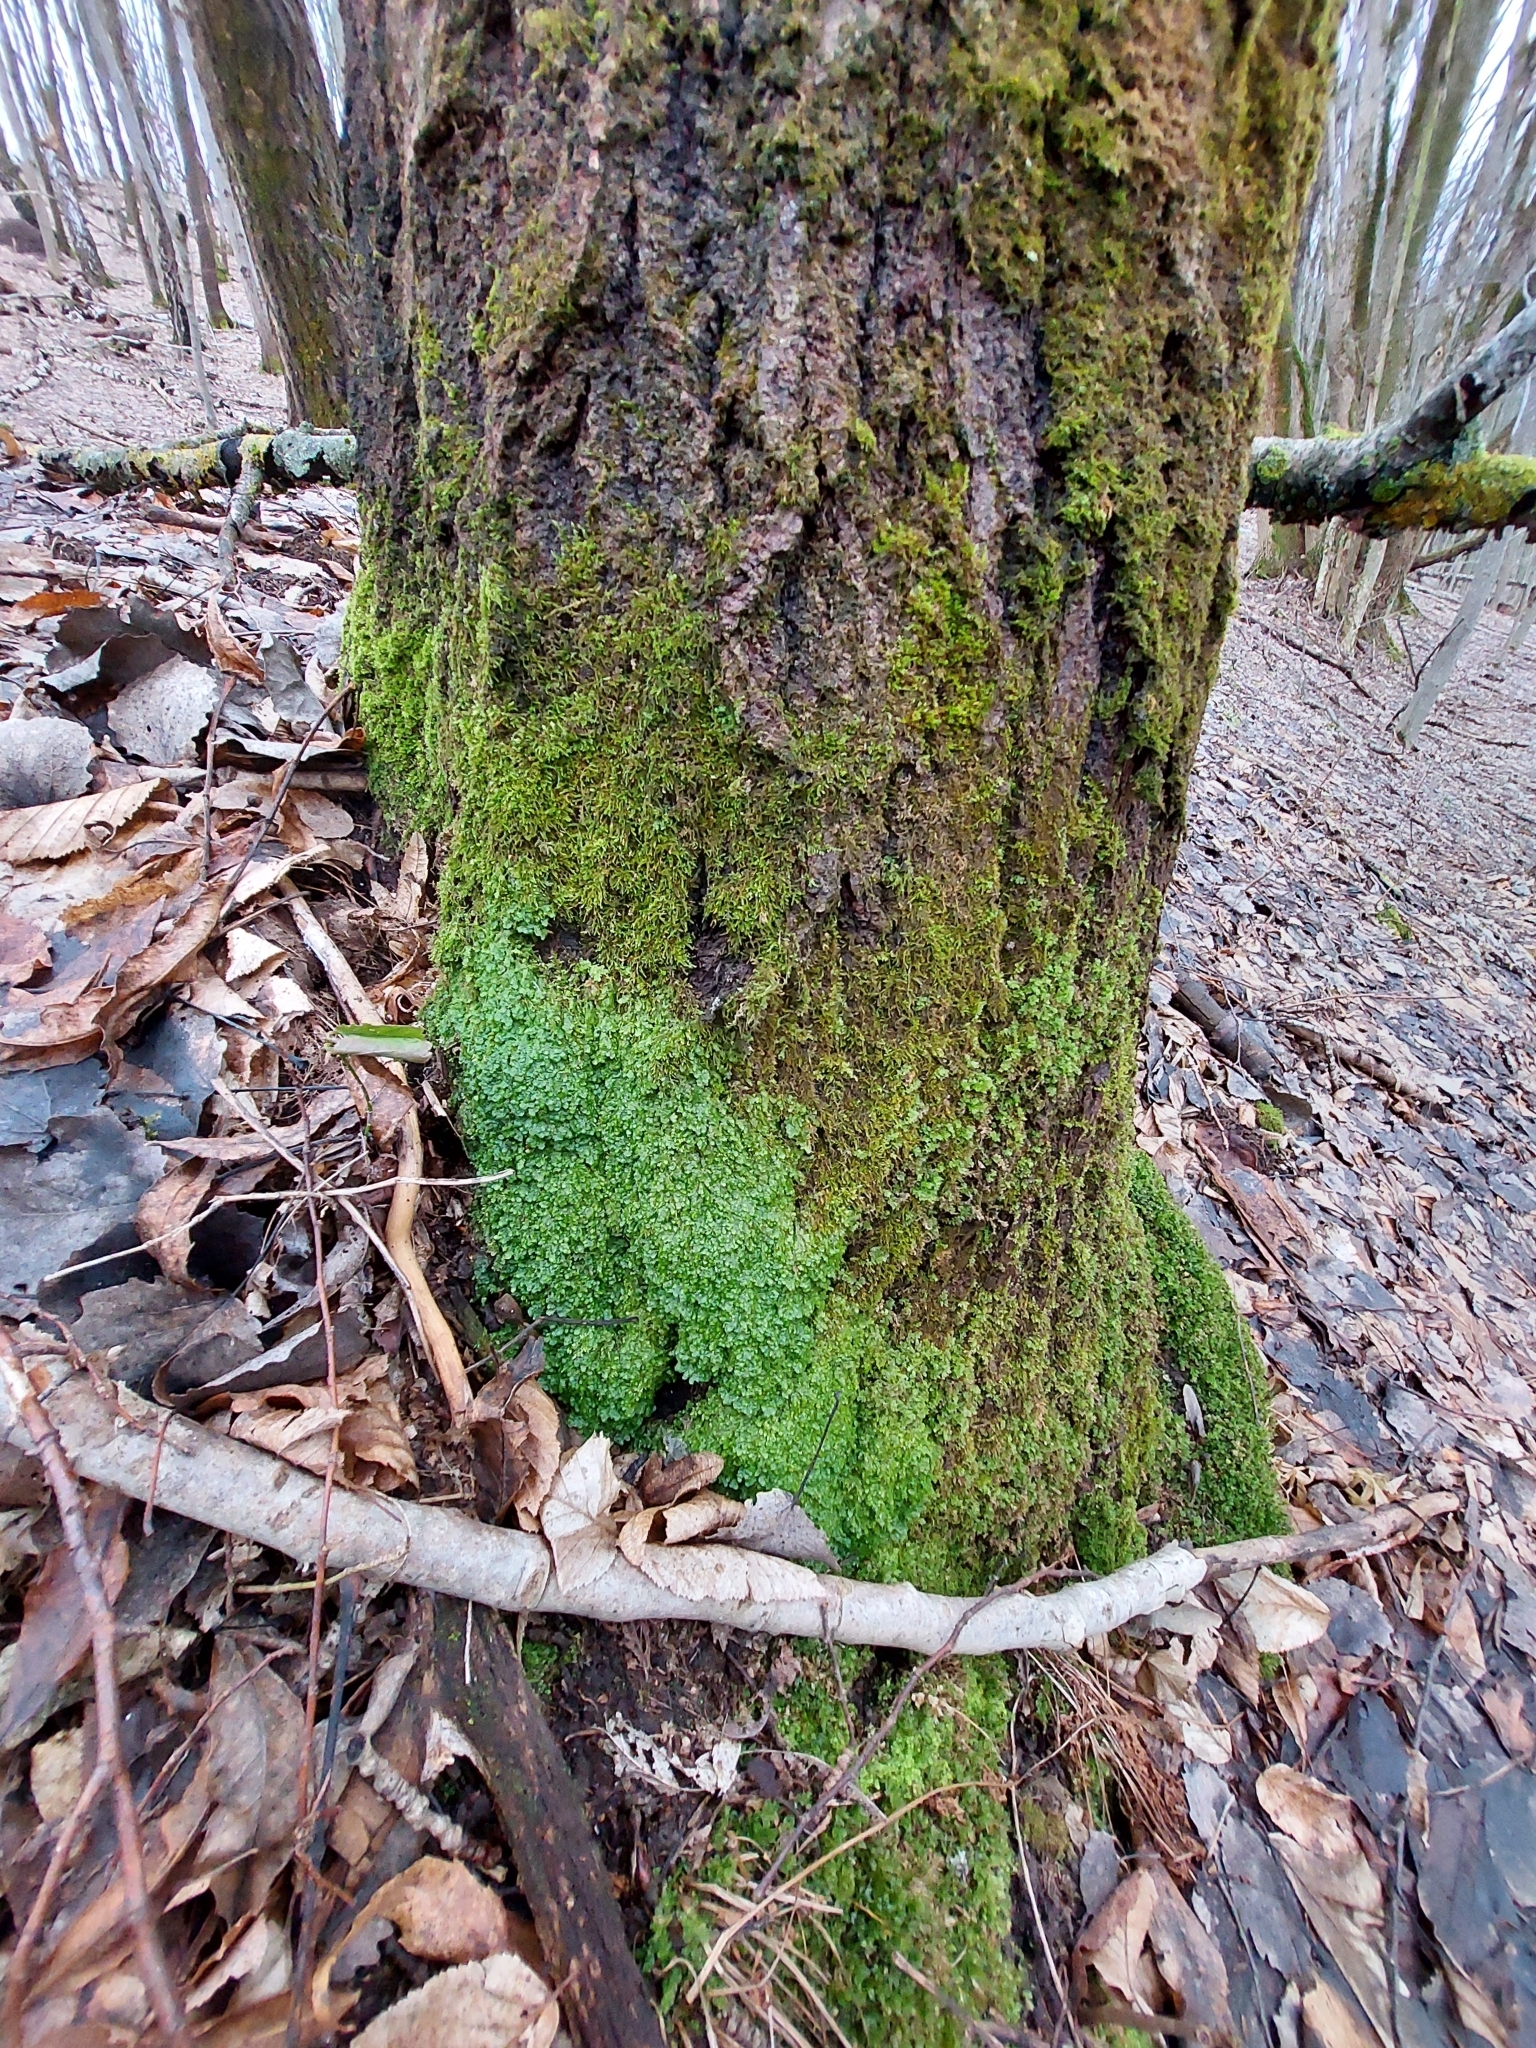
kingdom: Plantae
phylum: Marchantiophyta
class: Jungermanniopsida
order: Porellales
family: Radulaceae
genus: Radula
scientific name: Radula complanata
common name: Flat-leaved scalewort
